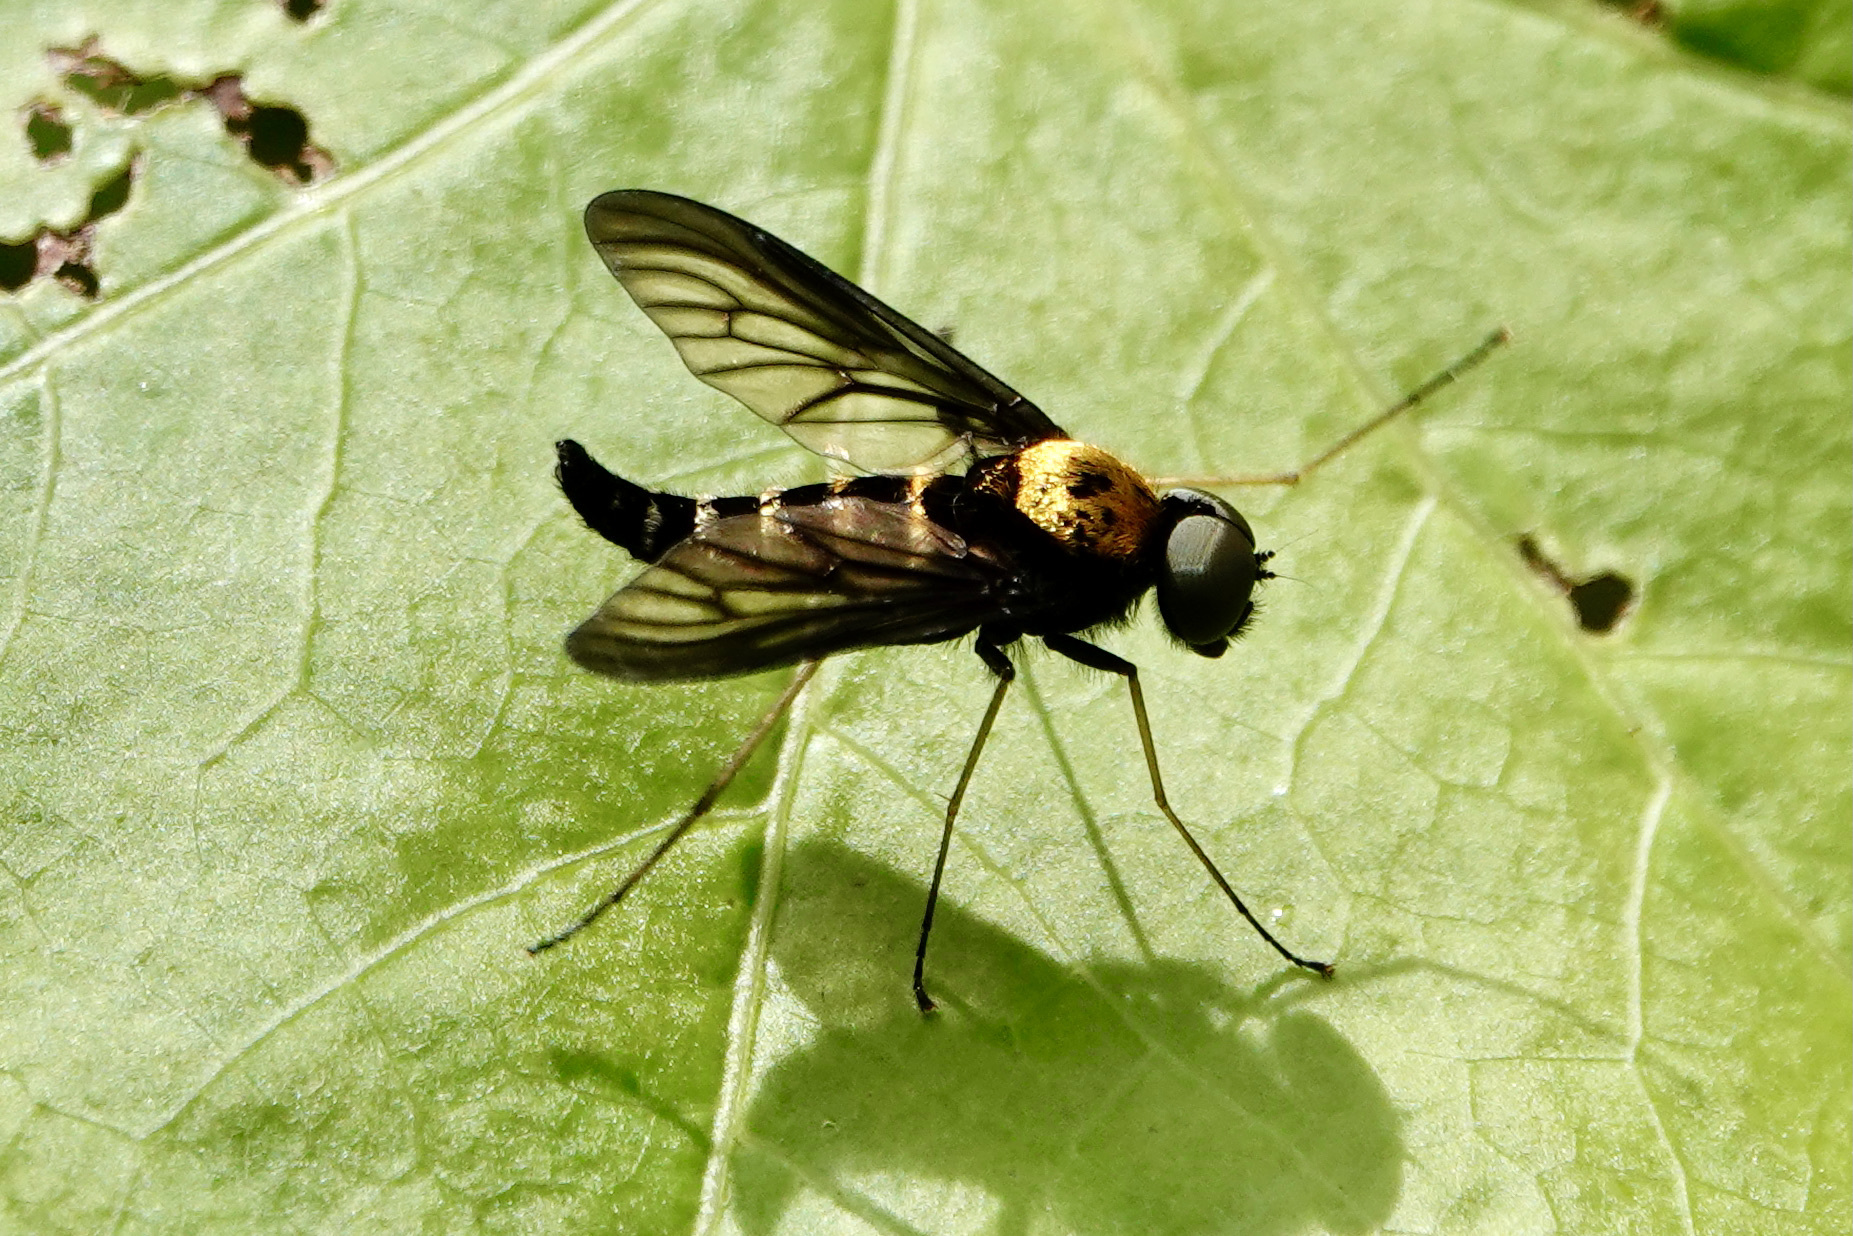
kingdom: Animalia
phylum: Arthropoda
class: Insecta
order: Diptera
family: Rhagionidae
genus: Chrysopilus
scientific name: Chrysopilus thoracicus
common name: Golden-backed snipe fly
